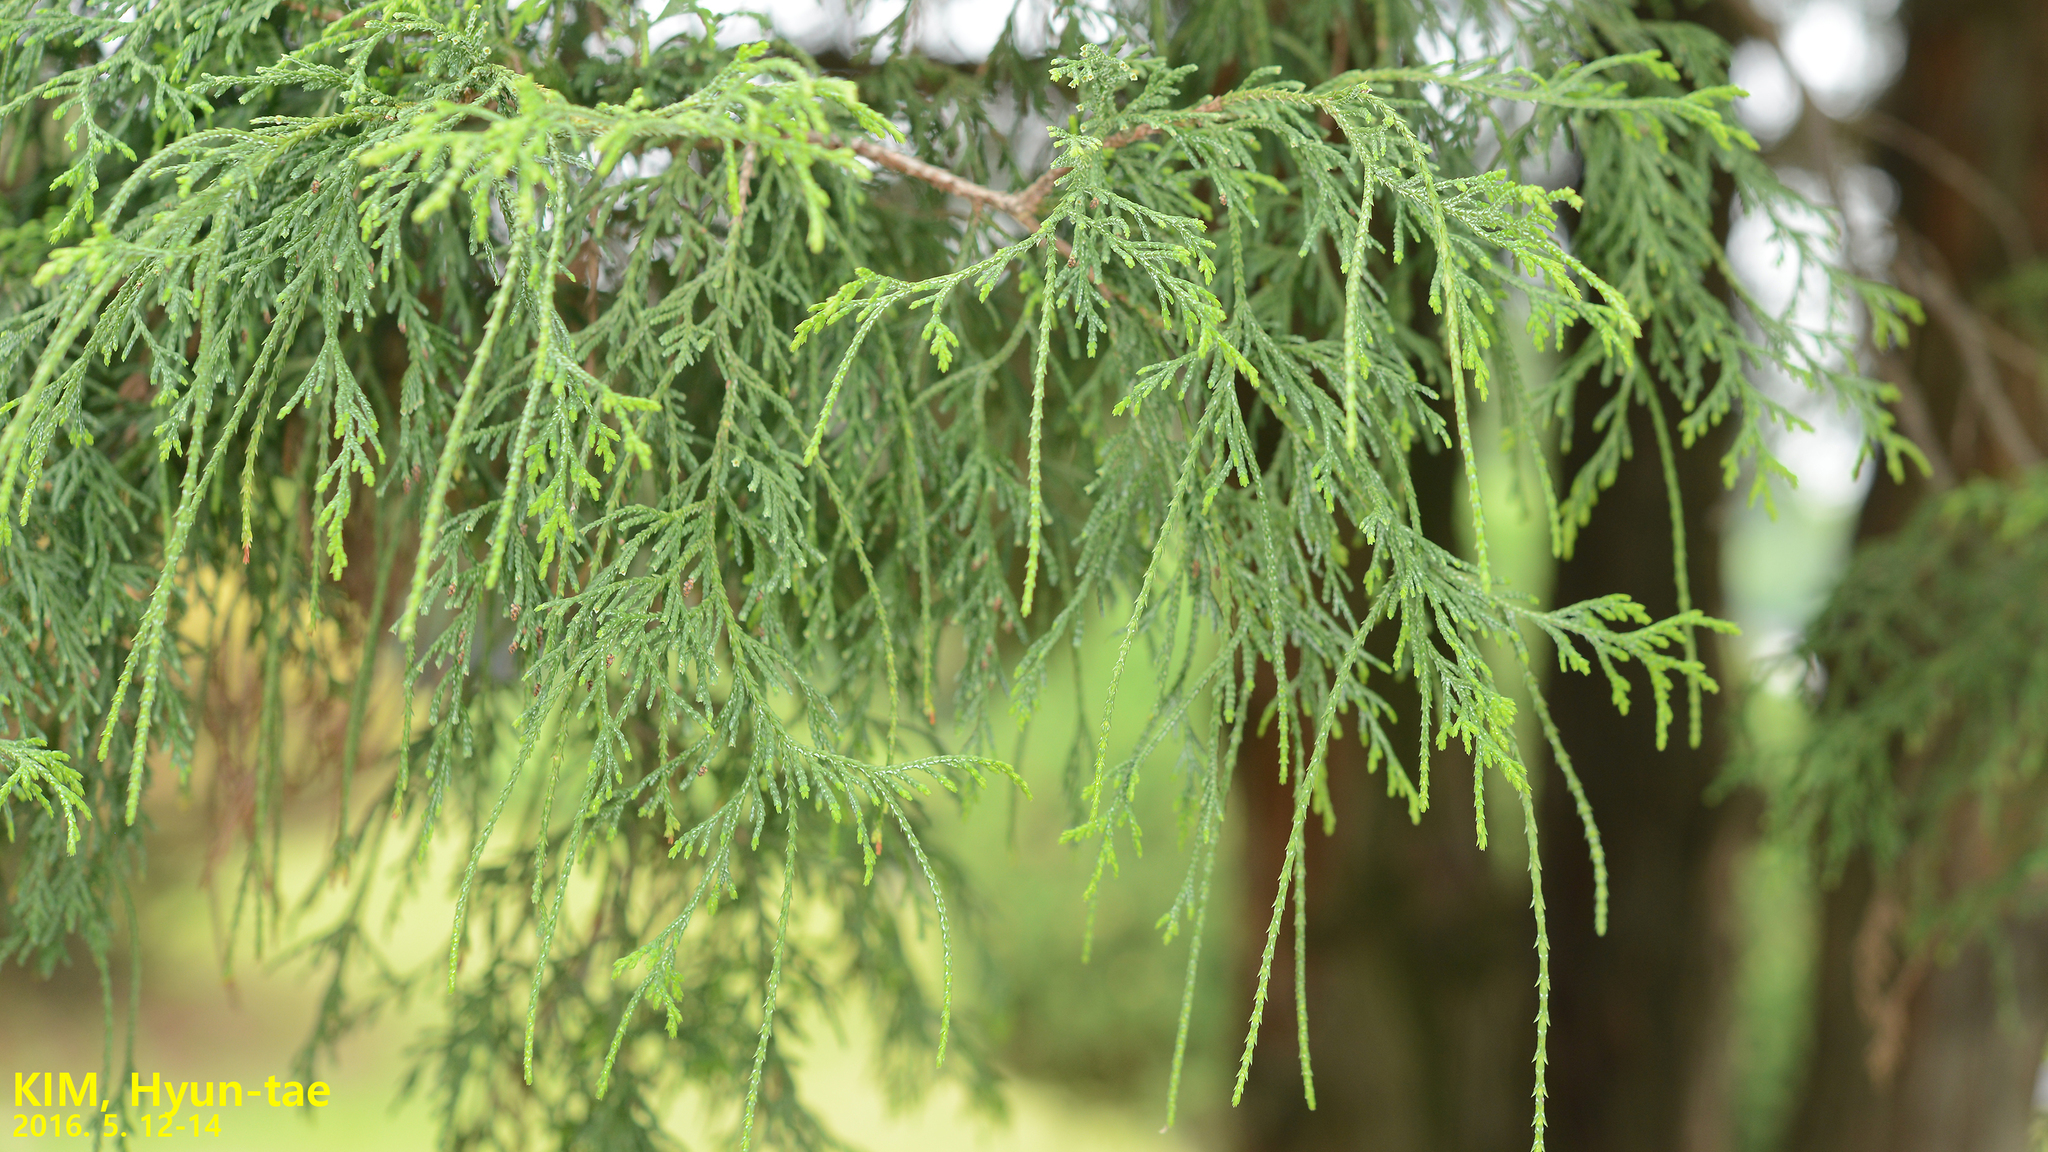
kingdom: Plantae
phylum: Tracheophyta
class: Pinopsida
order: Pinales
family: Cupressaceae
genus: Chamaecyparis
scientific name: Chamaecyparis pisifera
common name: Sawara cypress
